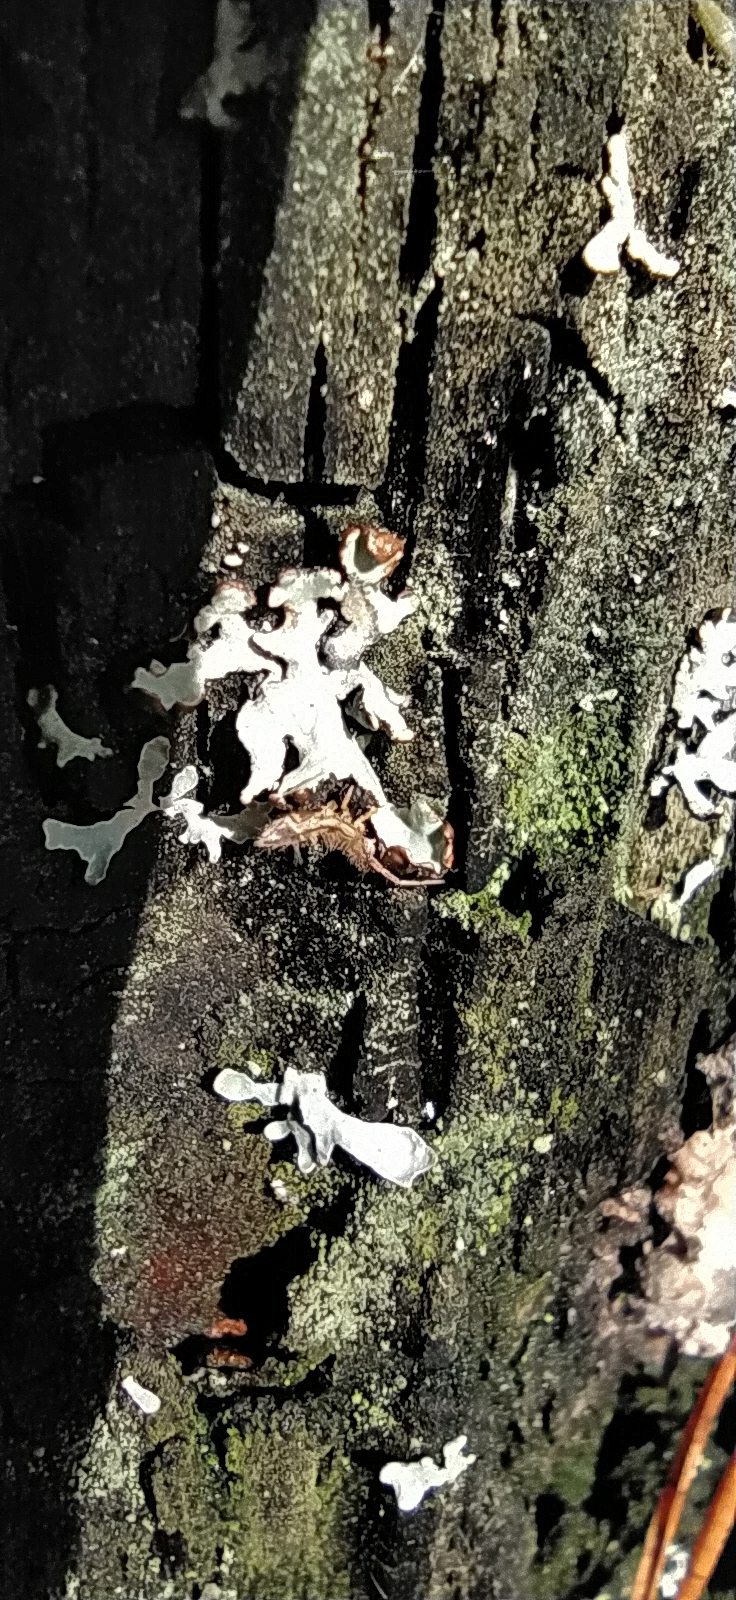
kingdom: Animalia
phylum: Arthropoda
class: Collembola
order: Entomobryomorpha
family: Entomobryidae
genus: Entomobrya
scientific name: Entomobrya nivalis
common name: Cosmopolitan springtail
